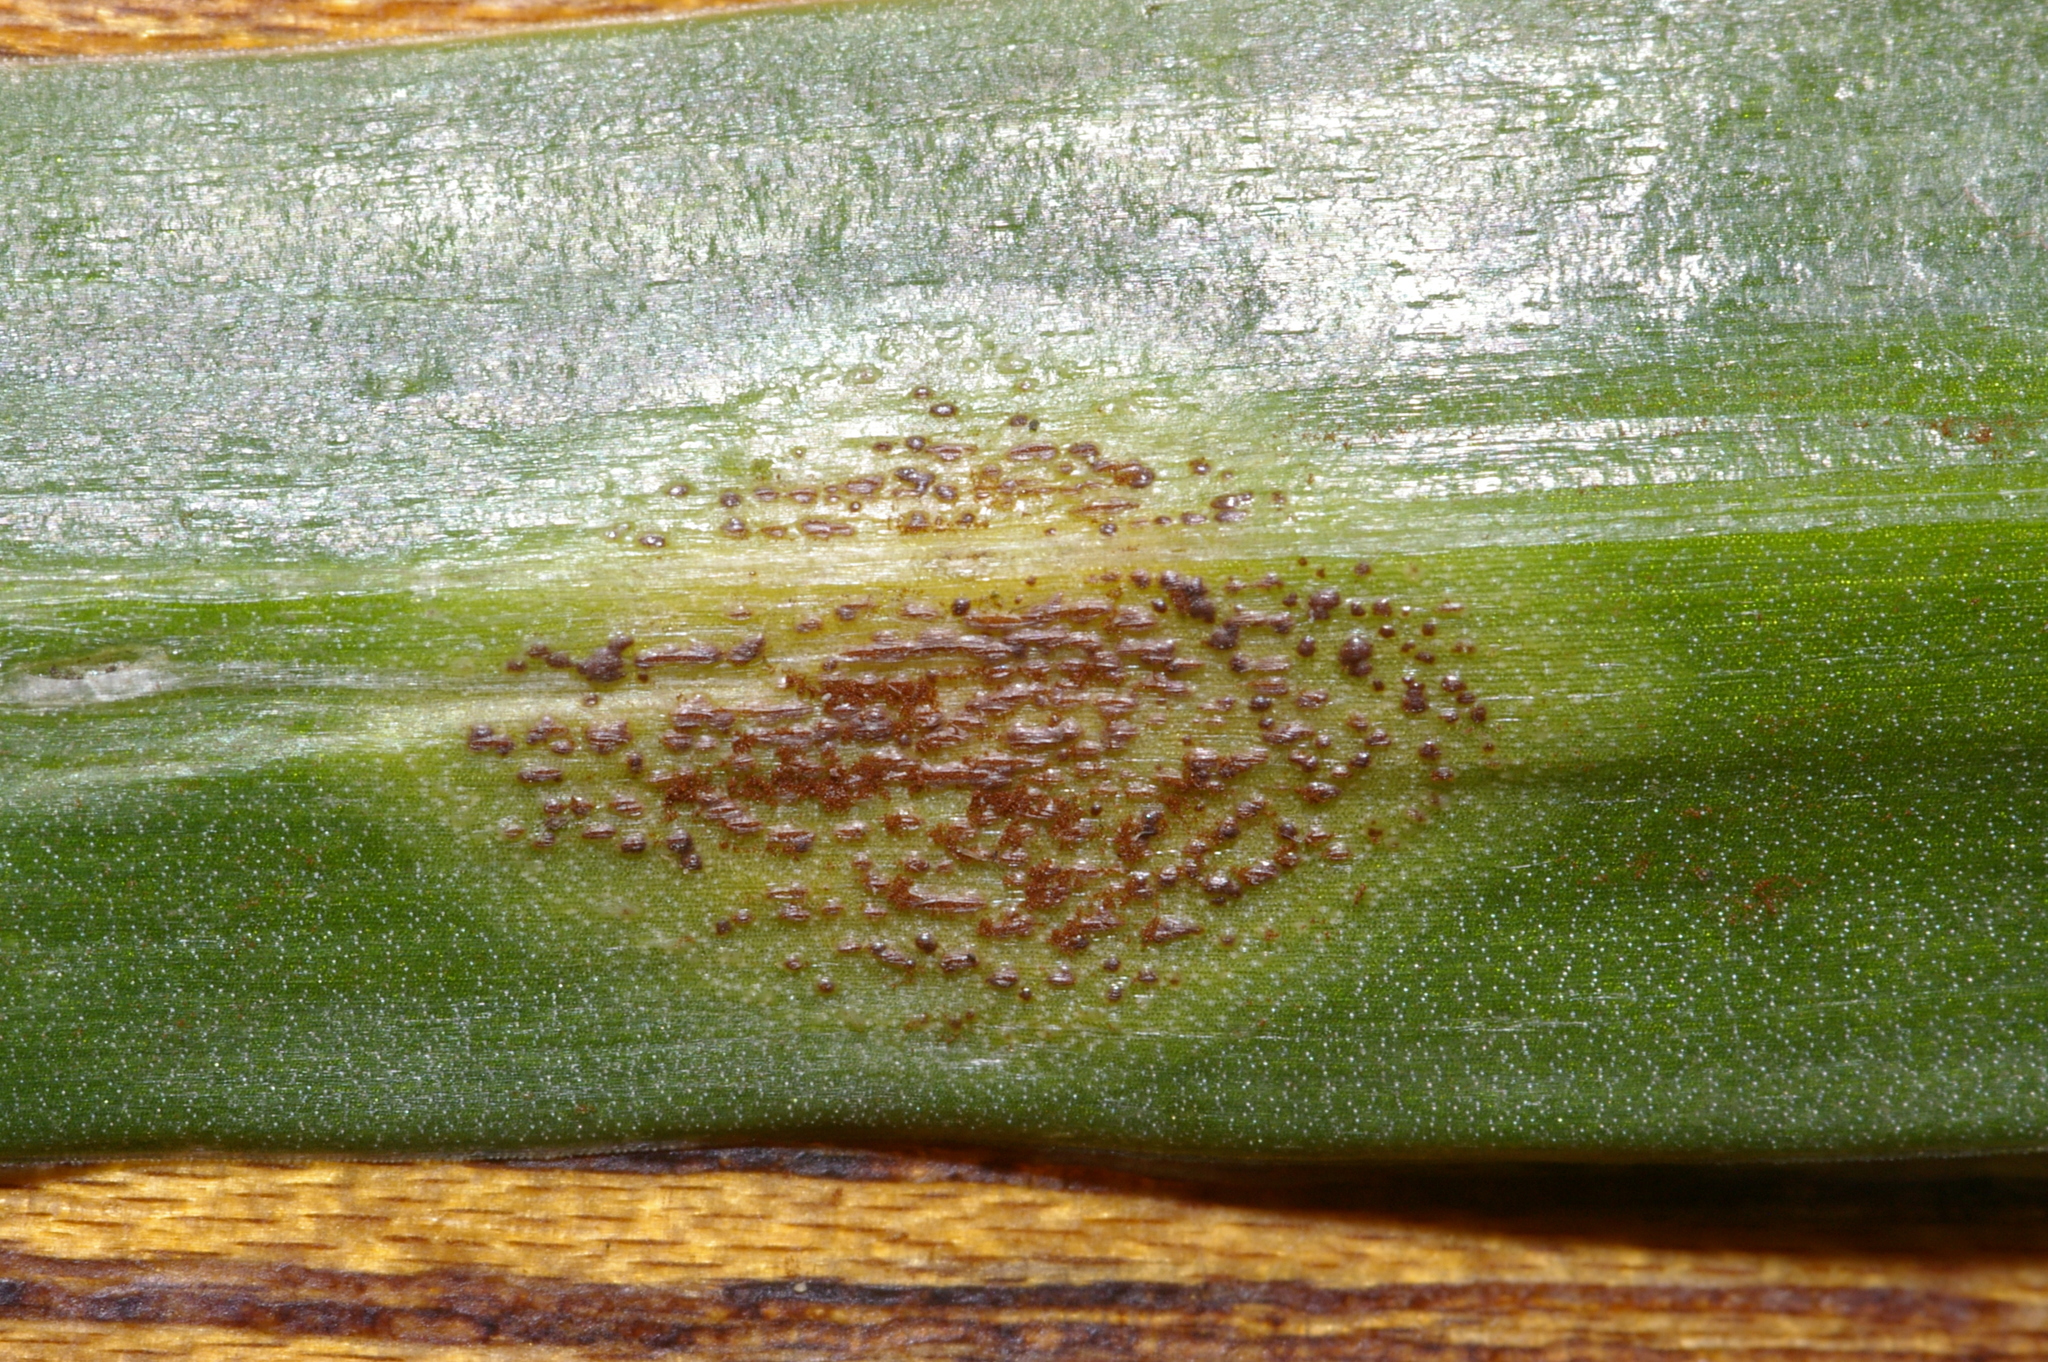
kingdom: Fungi
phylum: Basidiomycota
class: Pucciniomycetes
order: Pucciniales
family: Pucciniaceae
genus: Uromyces
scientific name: Uromyces hyacinthi
